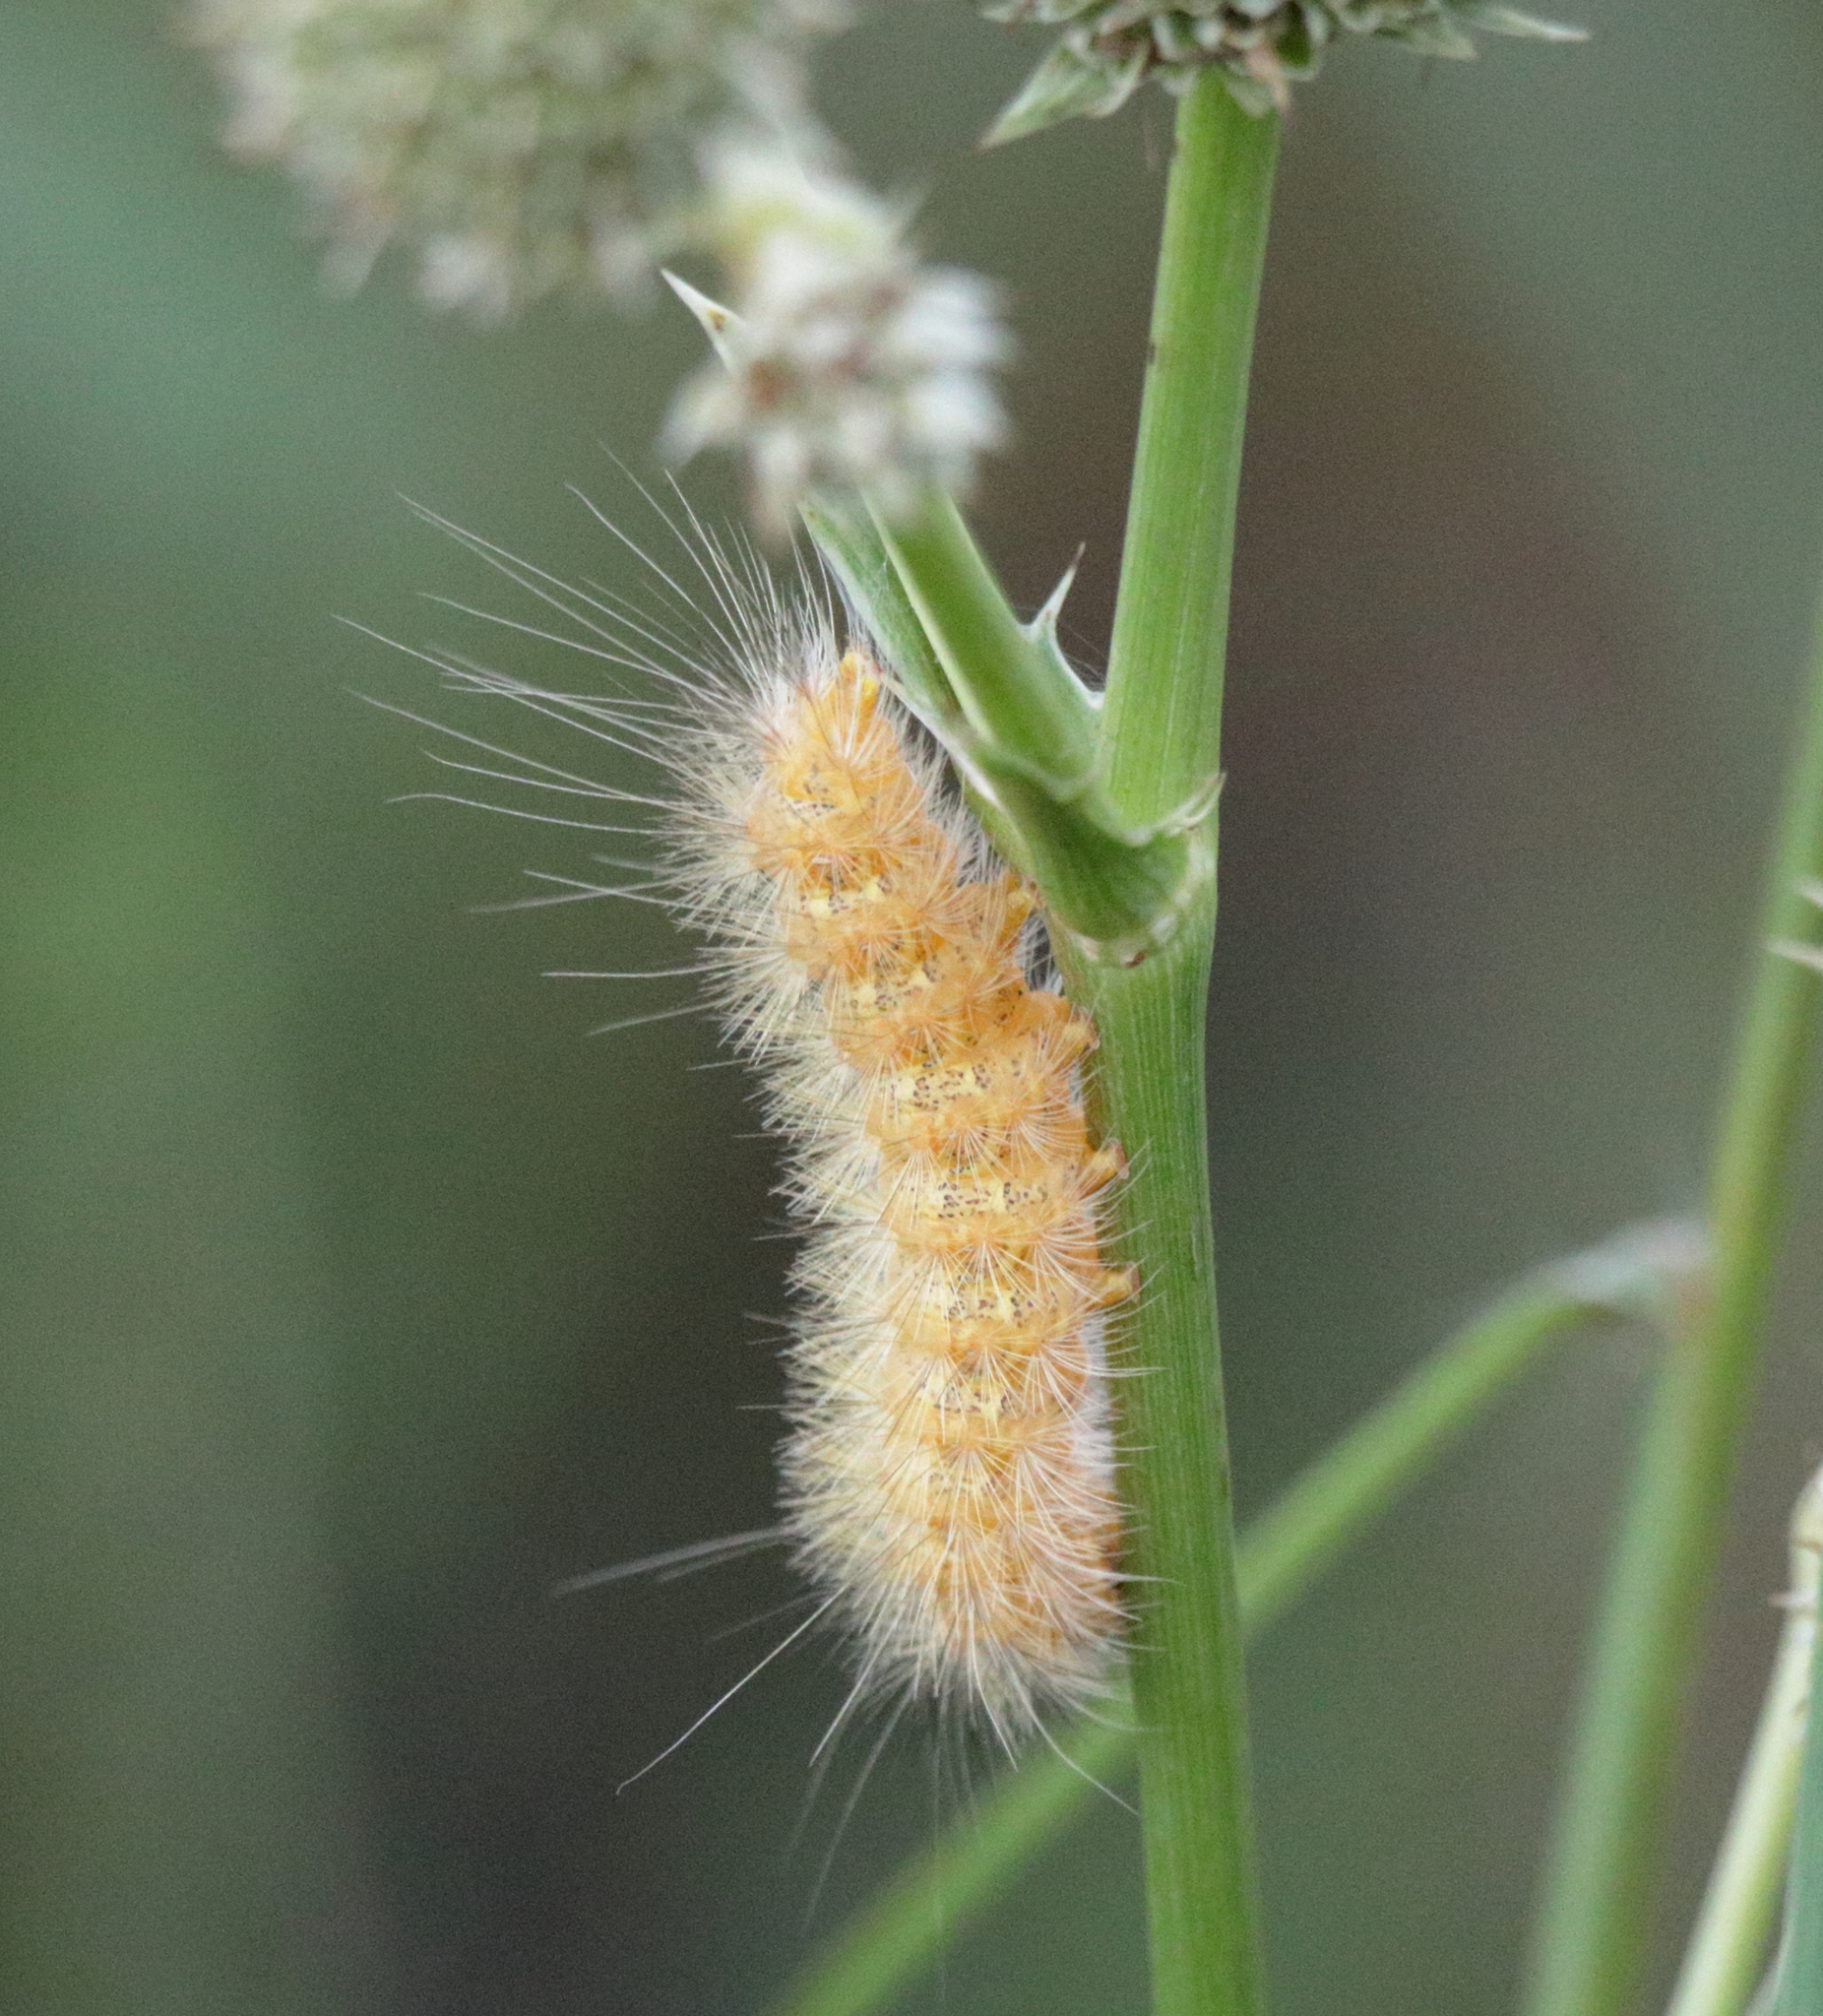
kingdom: Animalia
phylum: Arthropoda
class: Insecta
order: Lepidoptera
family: Erebidae
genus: Estigmene
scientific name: Estigmene acrea
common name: Salt marsh moth
